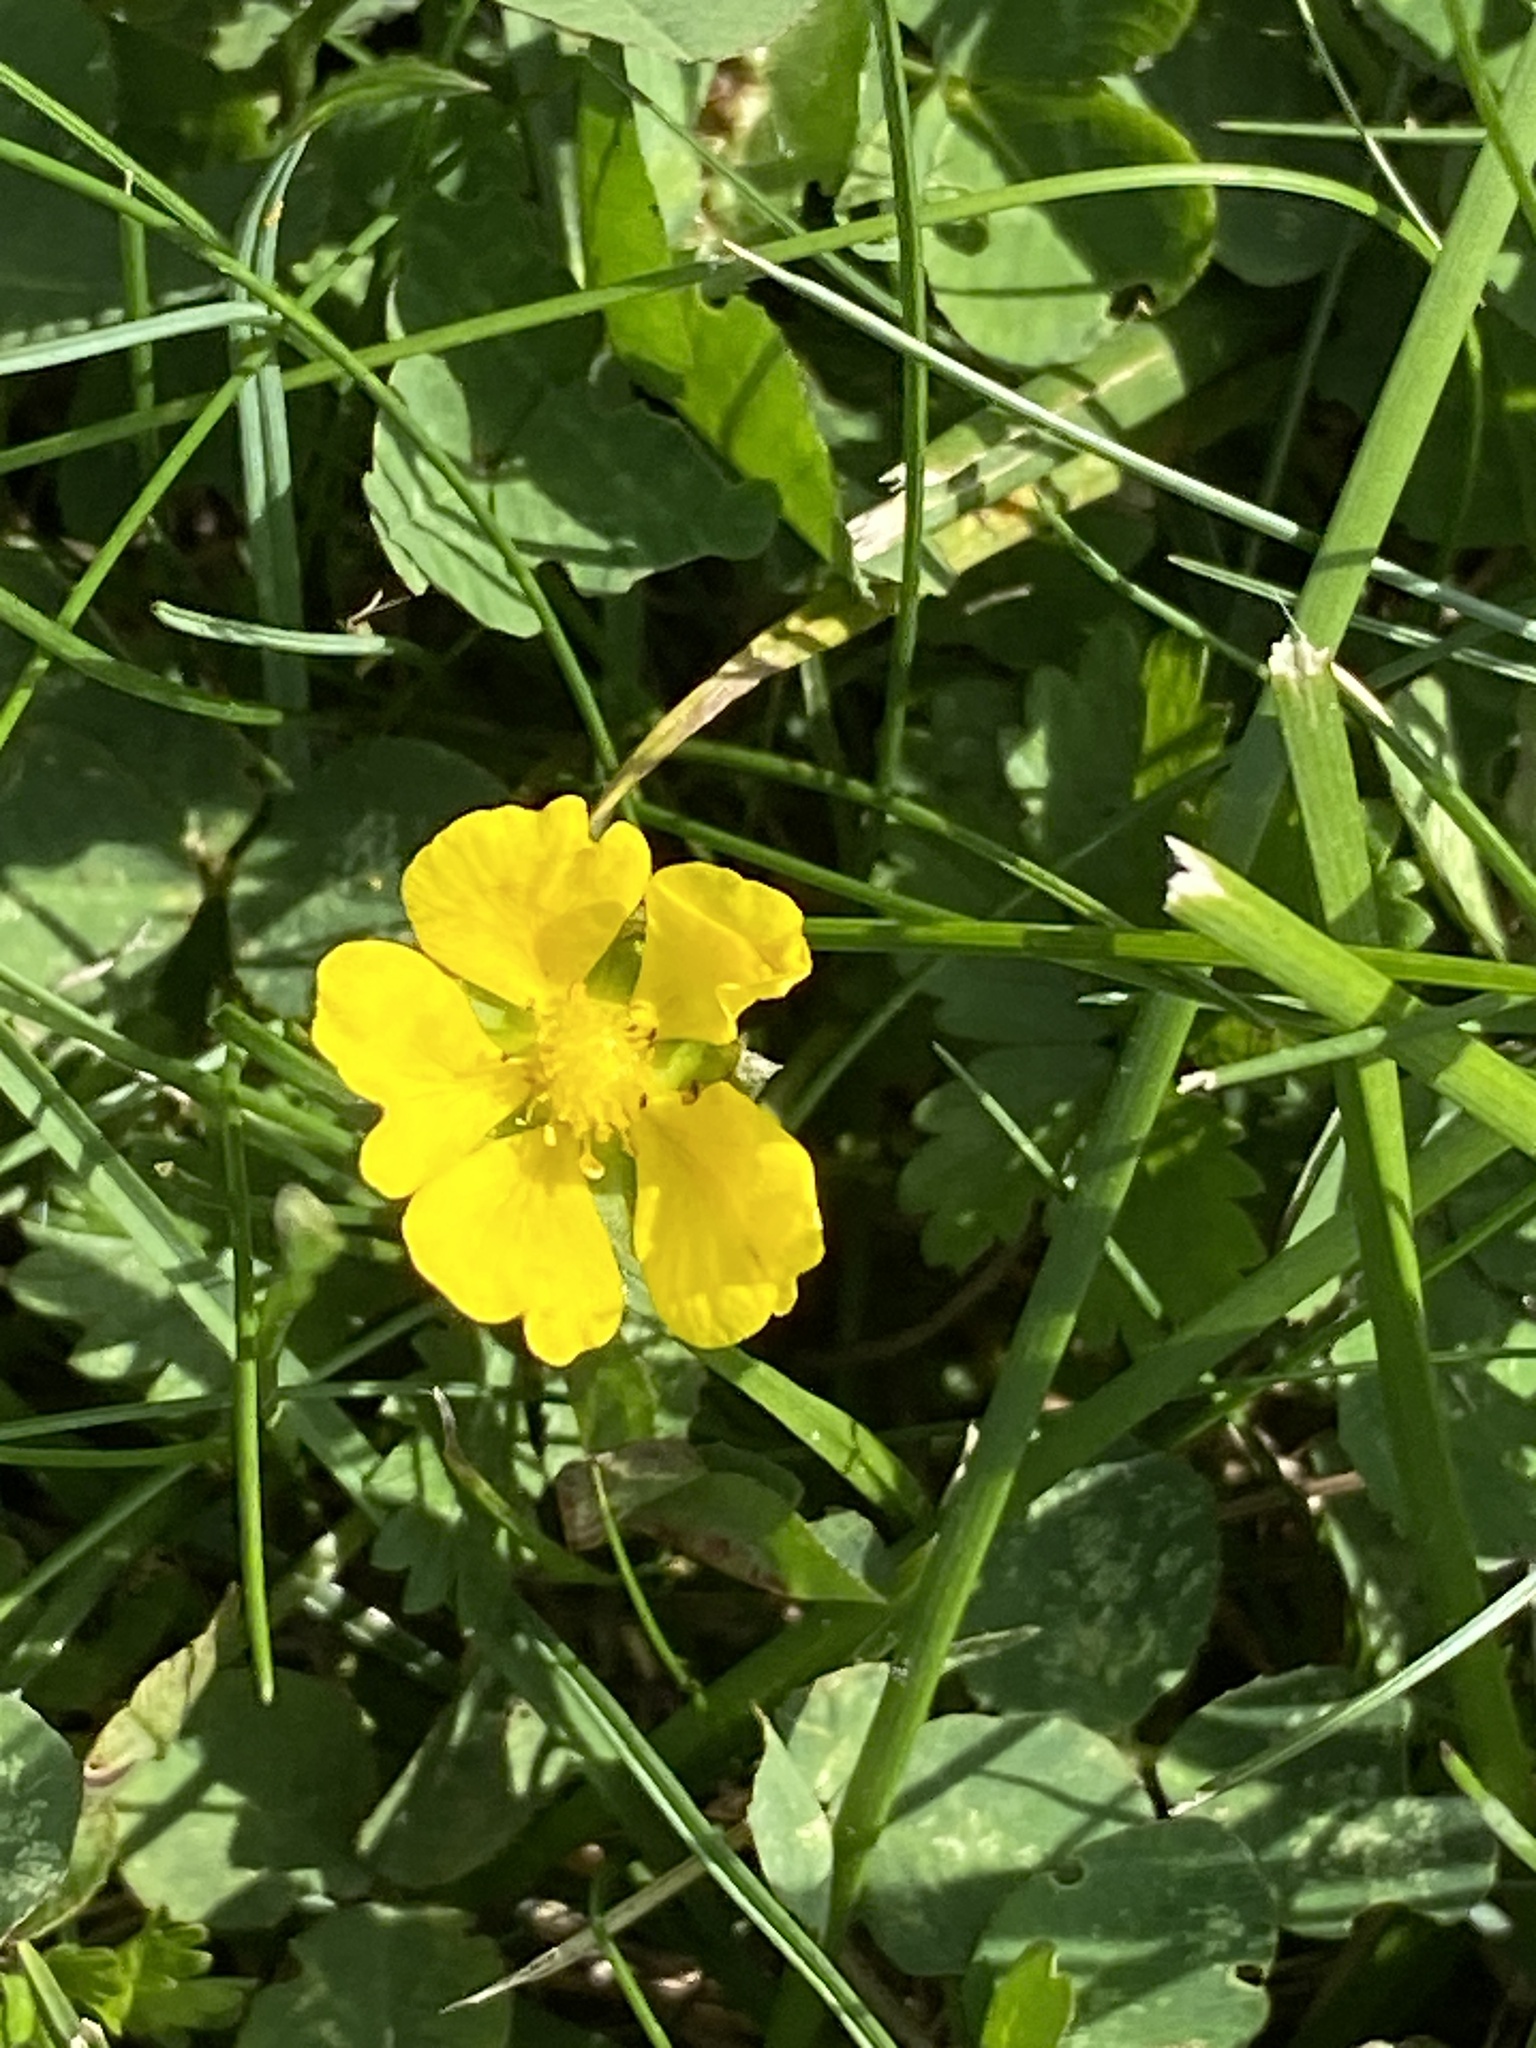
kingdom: Plantae
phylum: Tracheophyta
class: Magnoliopsida
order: Rosales
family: Rosaceae
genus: Potentilla
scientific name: Potentilla reptans
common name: Creeping cinquefoil
